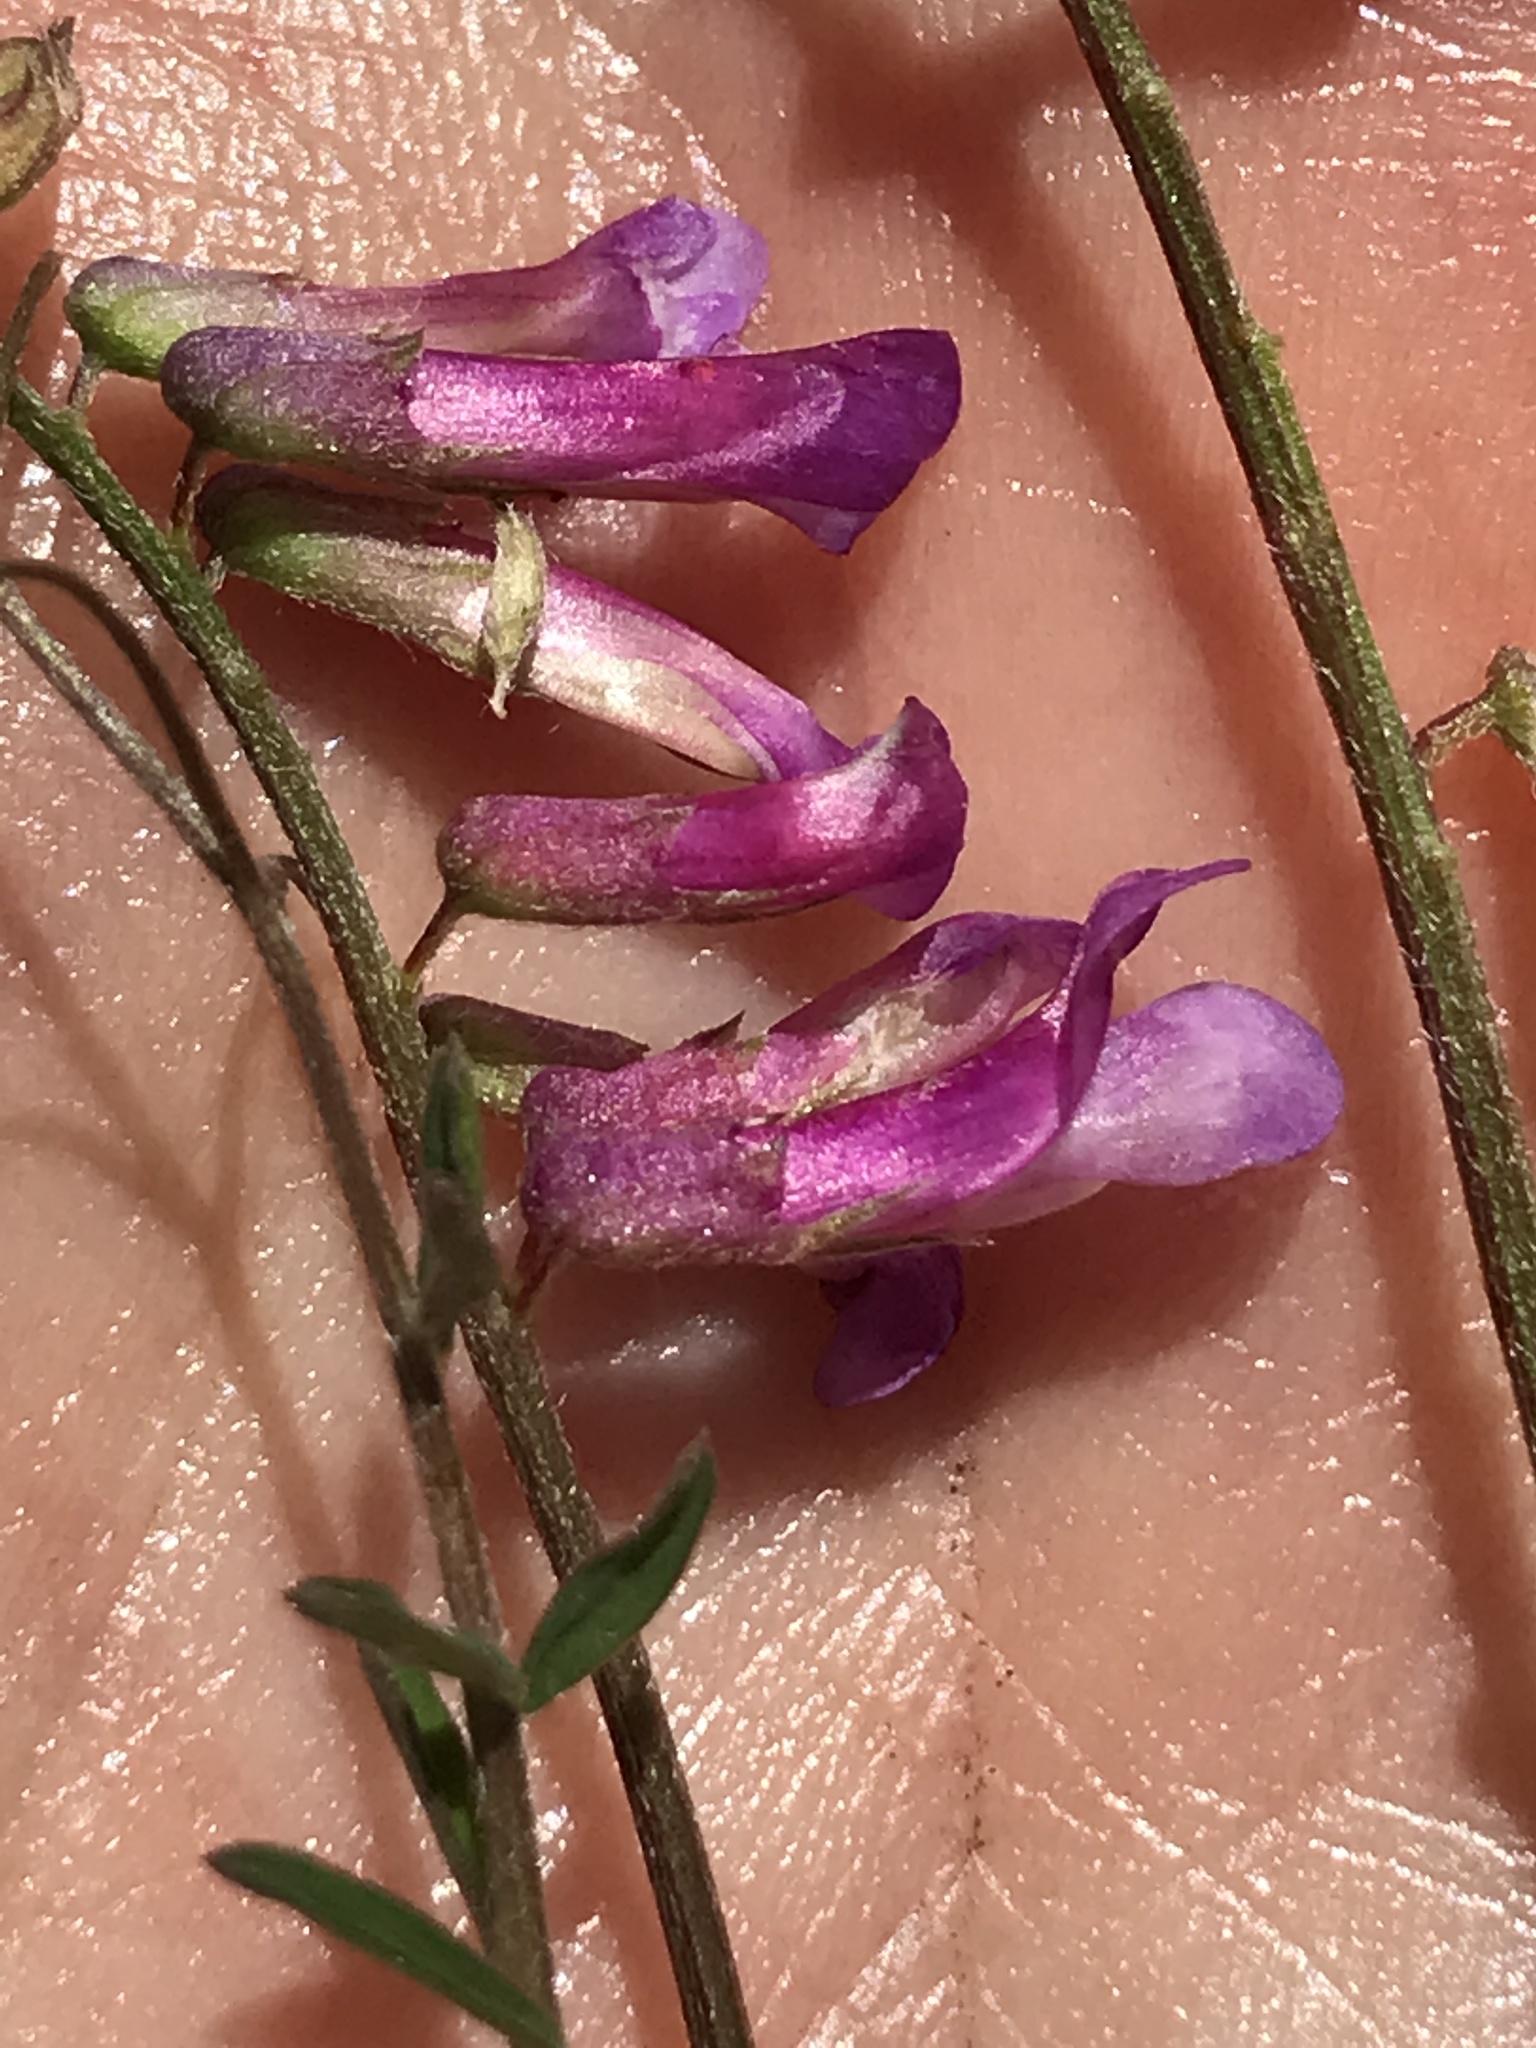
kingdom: Plantae
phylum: Tracheophyta
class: Magnoliopsida
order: Fabales
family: Fabaceae
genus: Vicia
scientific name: Vicia benghalensis
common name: Purple vetch
